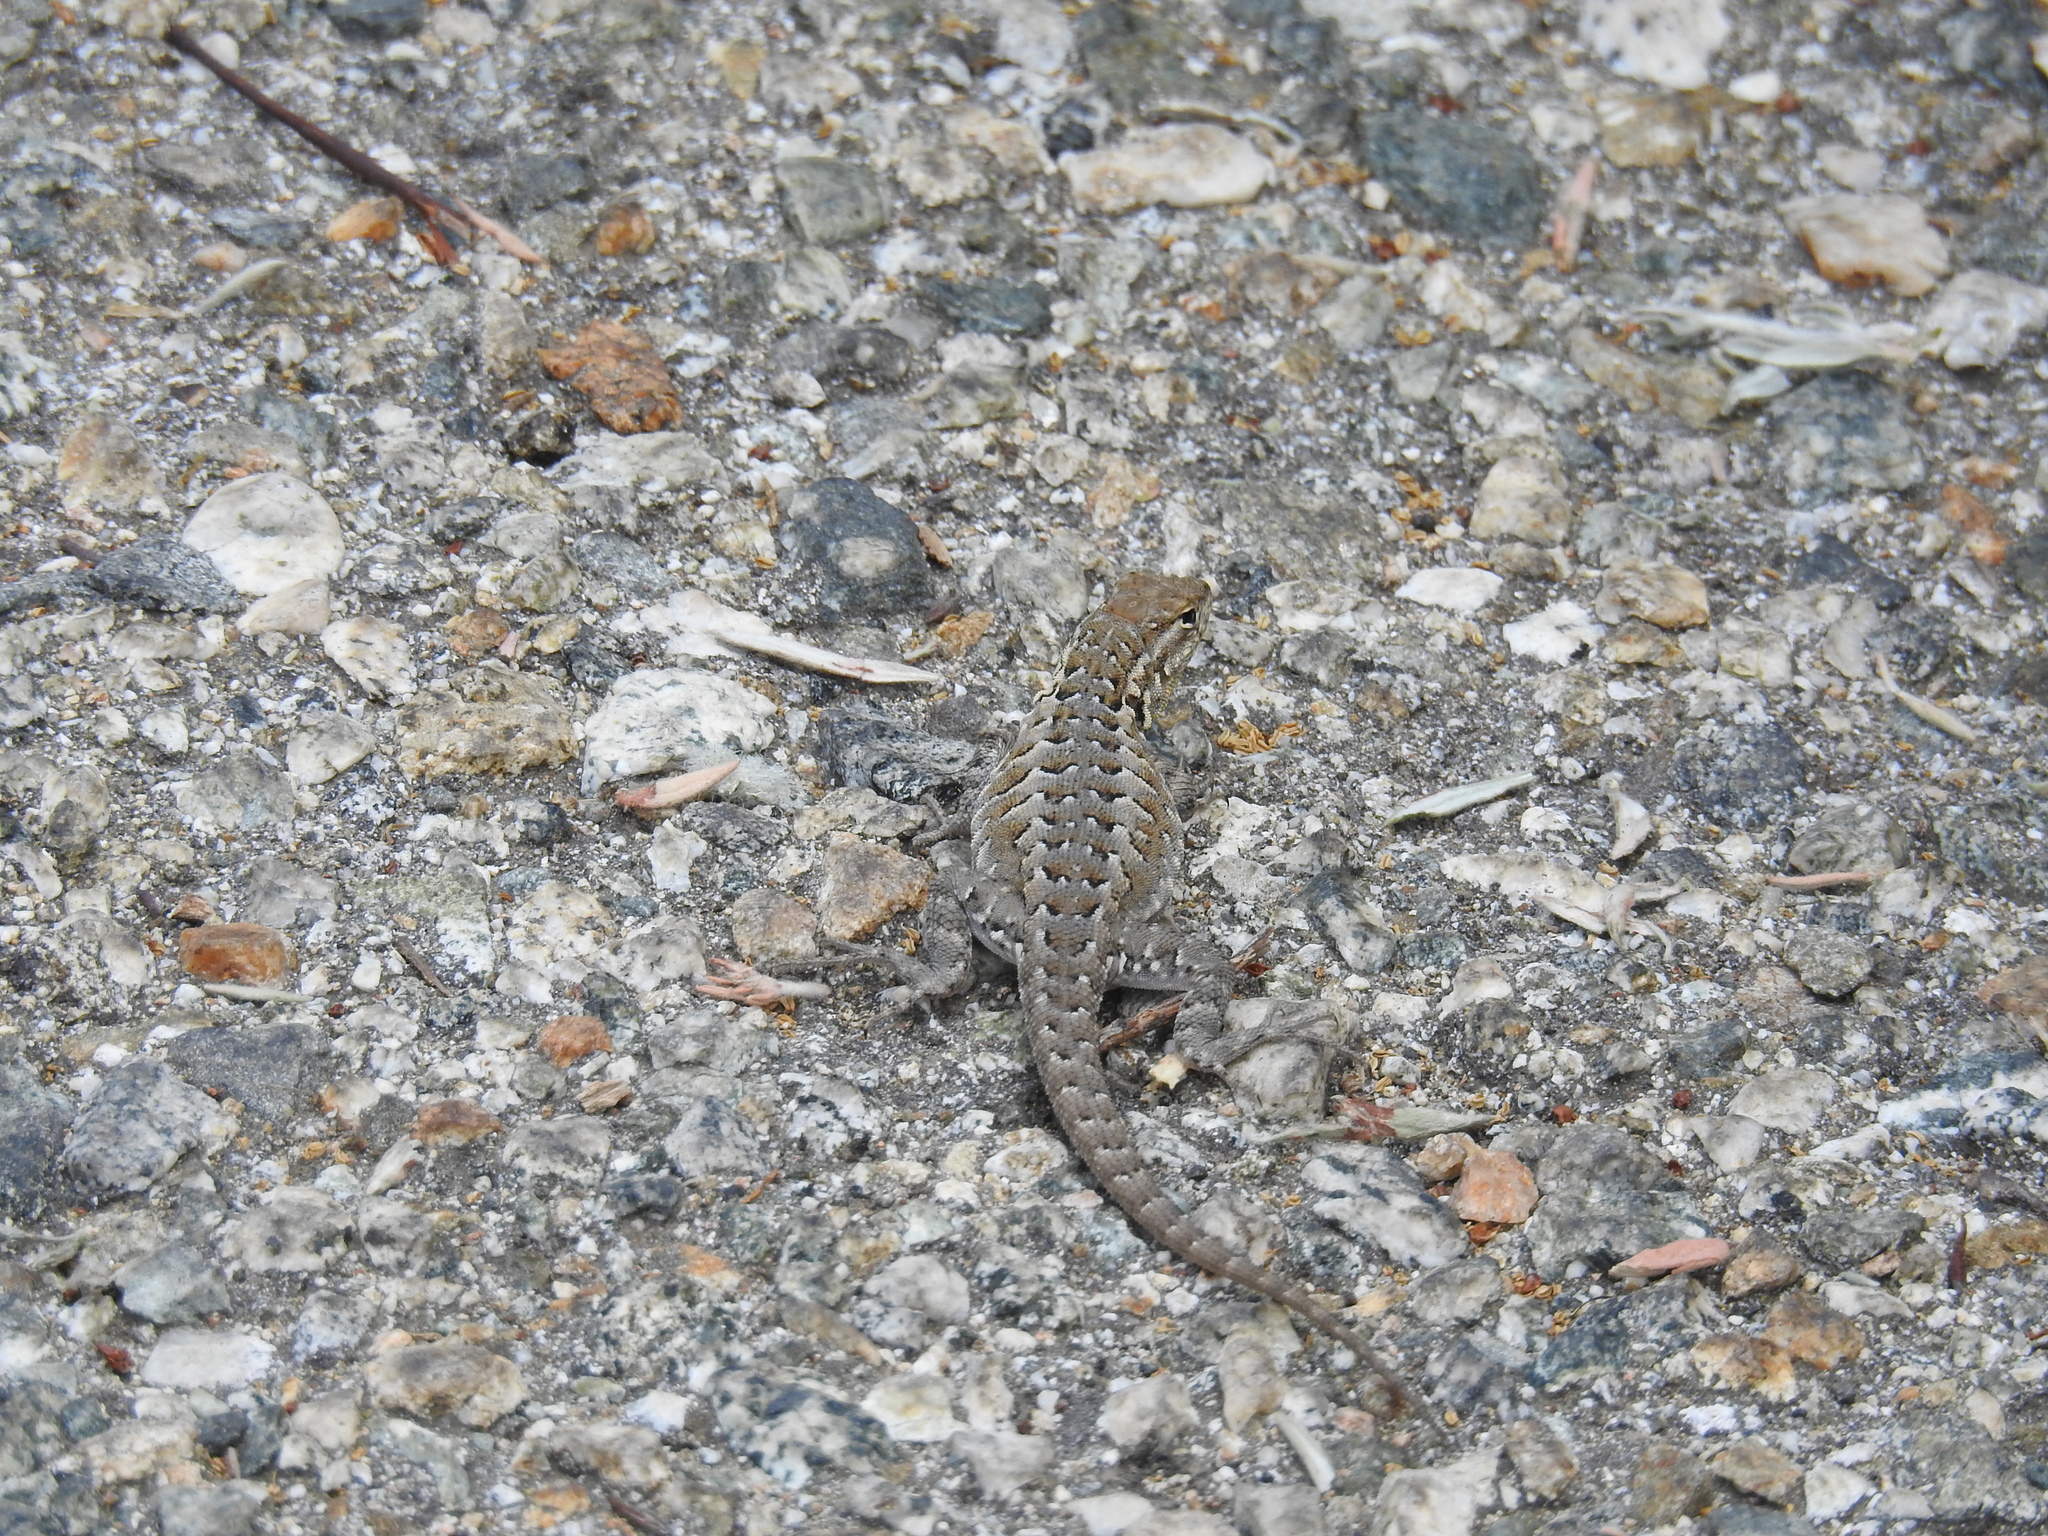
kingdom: Animalia
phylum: Chordata
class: Squamata
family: Phrynosomatidae
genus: Uta
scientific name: Uta stansburiana
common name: Side-blotched lizard
